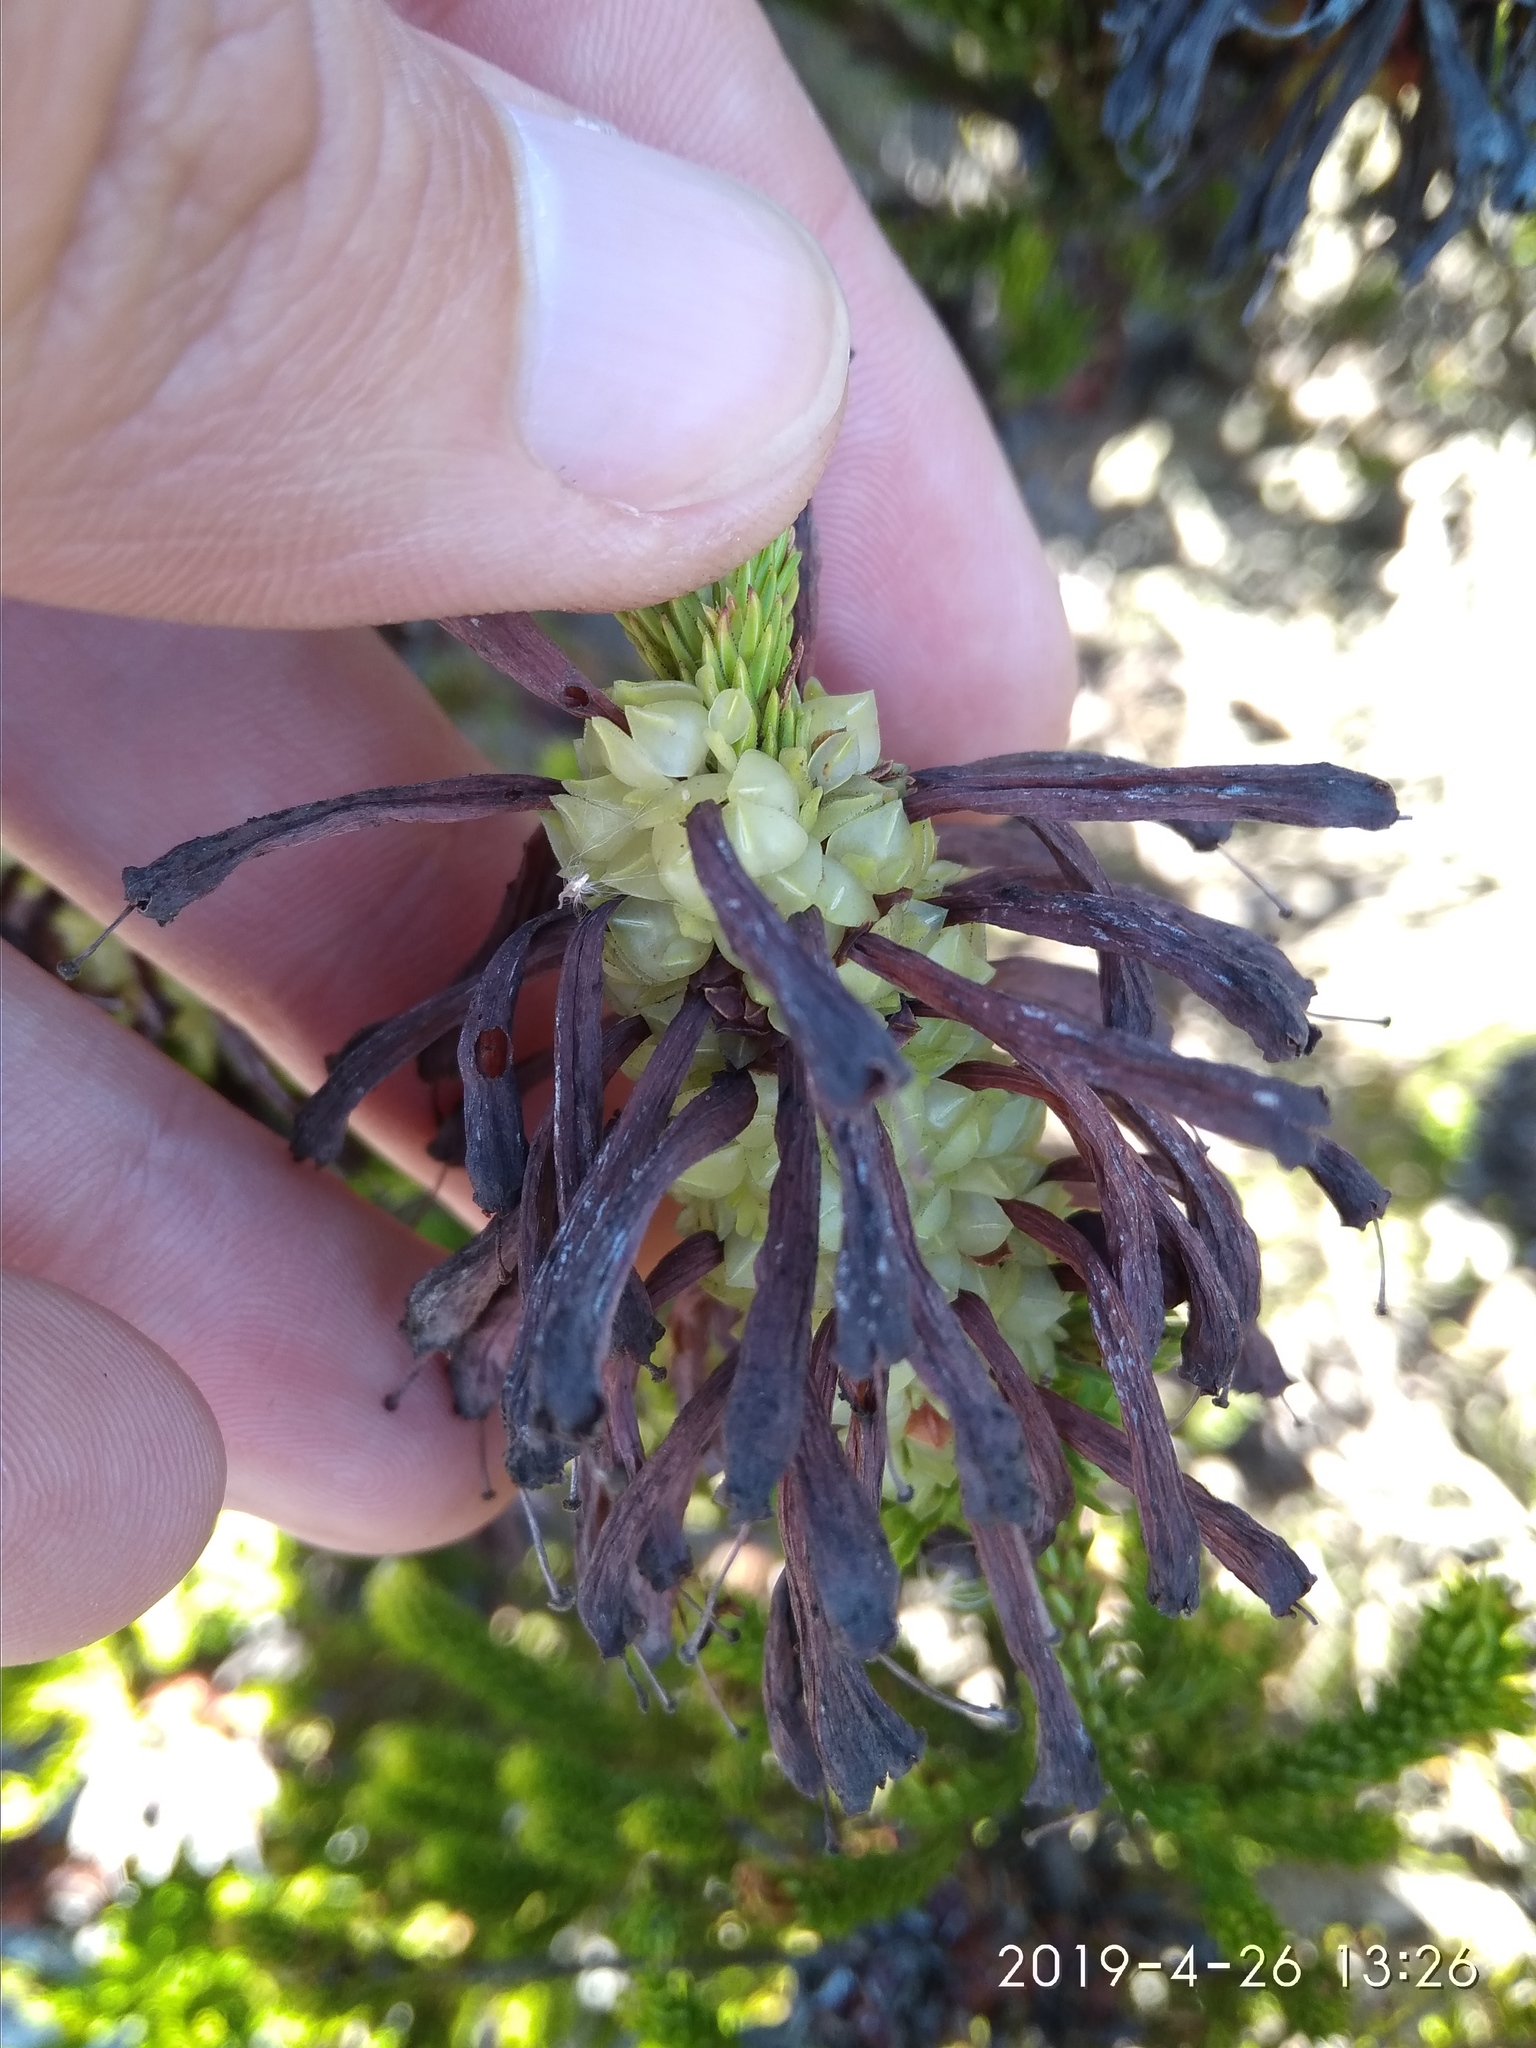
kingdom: Plantae
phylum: Tracheophyta
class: Magnoliopsida
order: Ericales
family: Ericaceae
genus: Erica
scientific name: Erica sessiliflora
